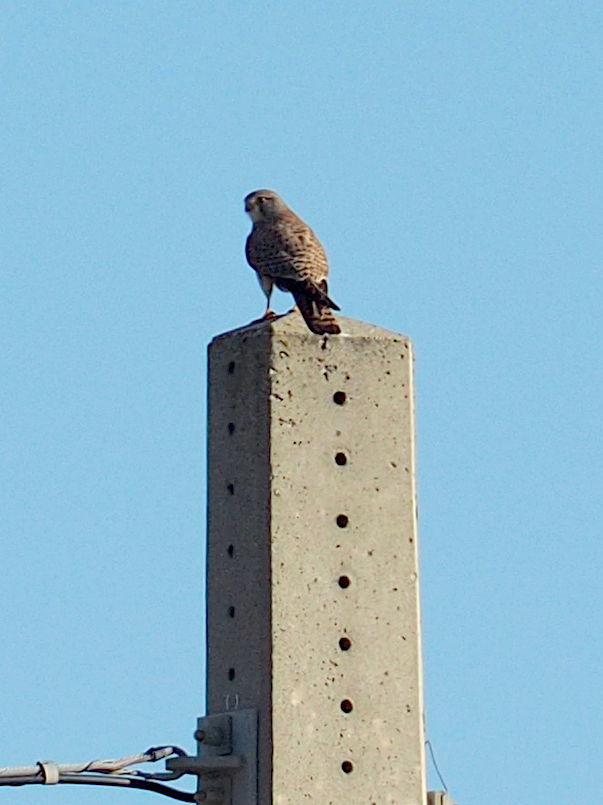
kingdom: Animalia
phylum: Chordata
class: Aves
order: Falconiformes
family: Falconidae
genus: Falco
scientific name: Falco tinnunculus
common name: Common kestrel
